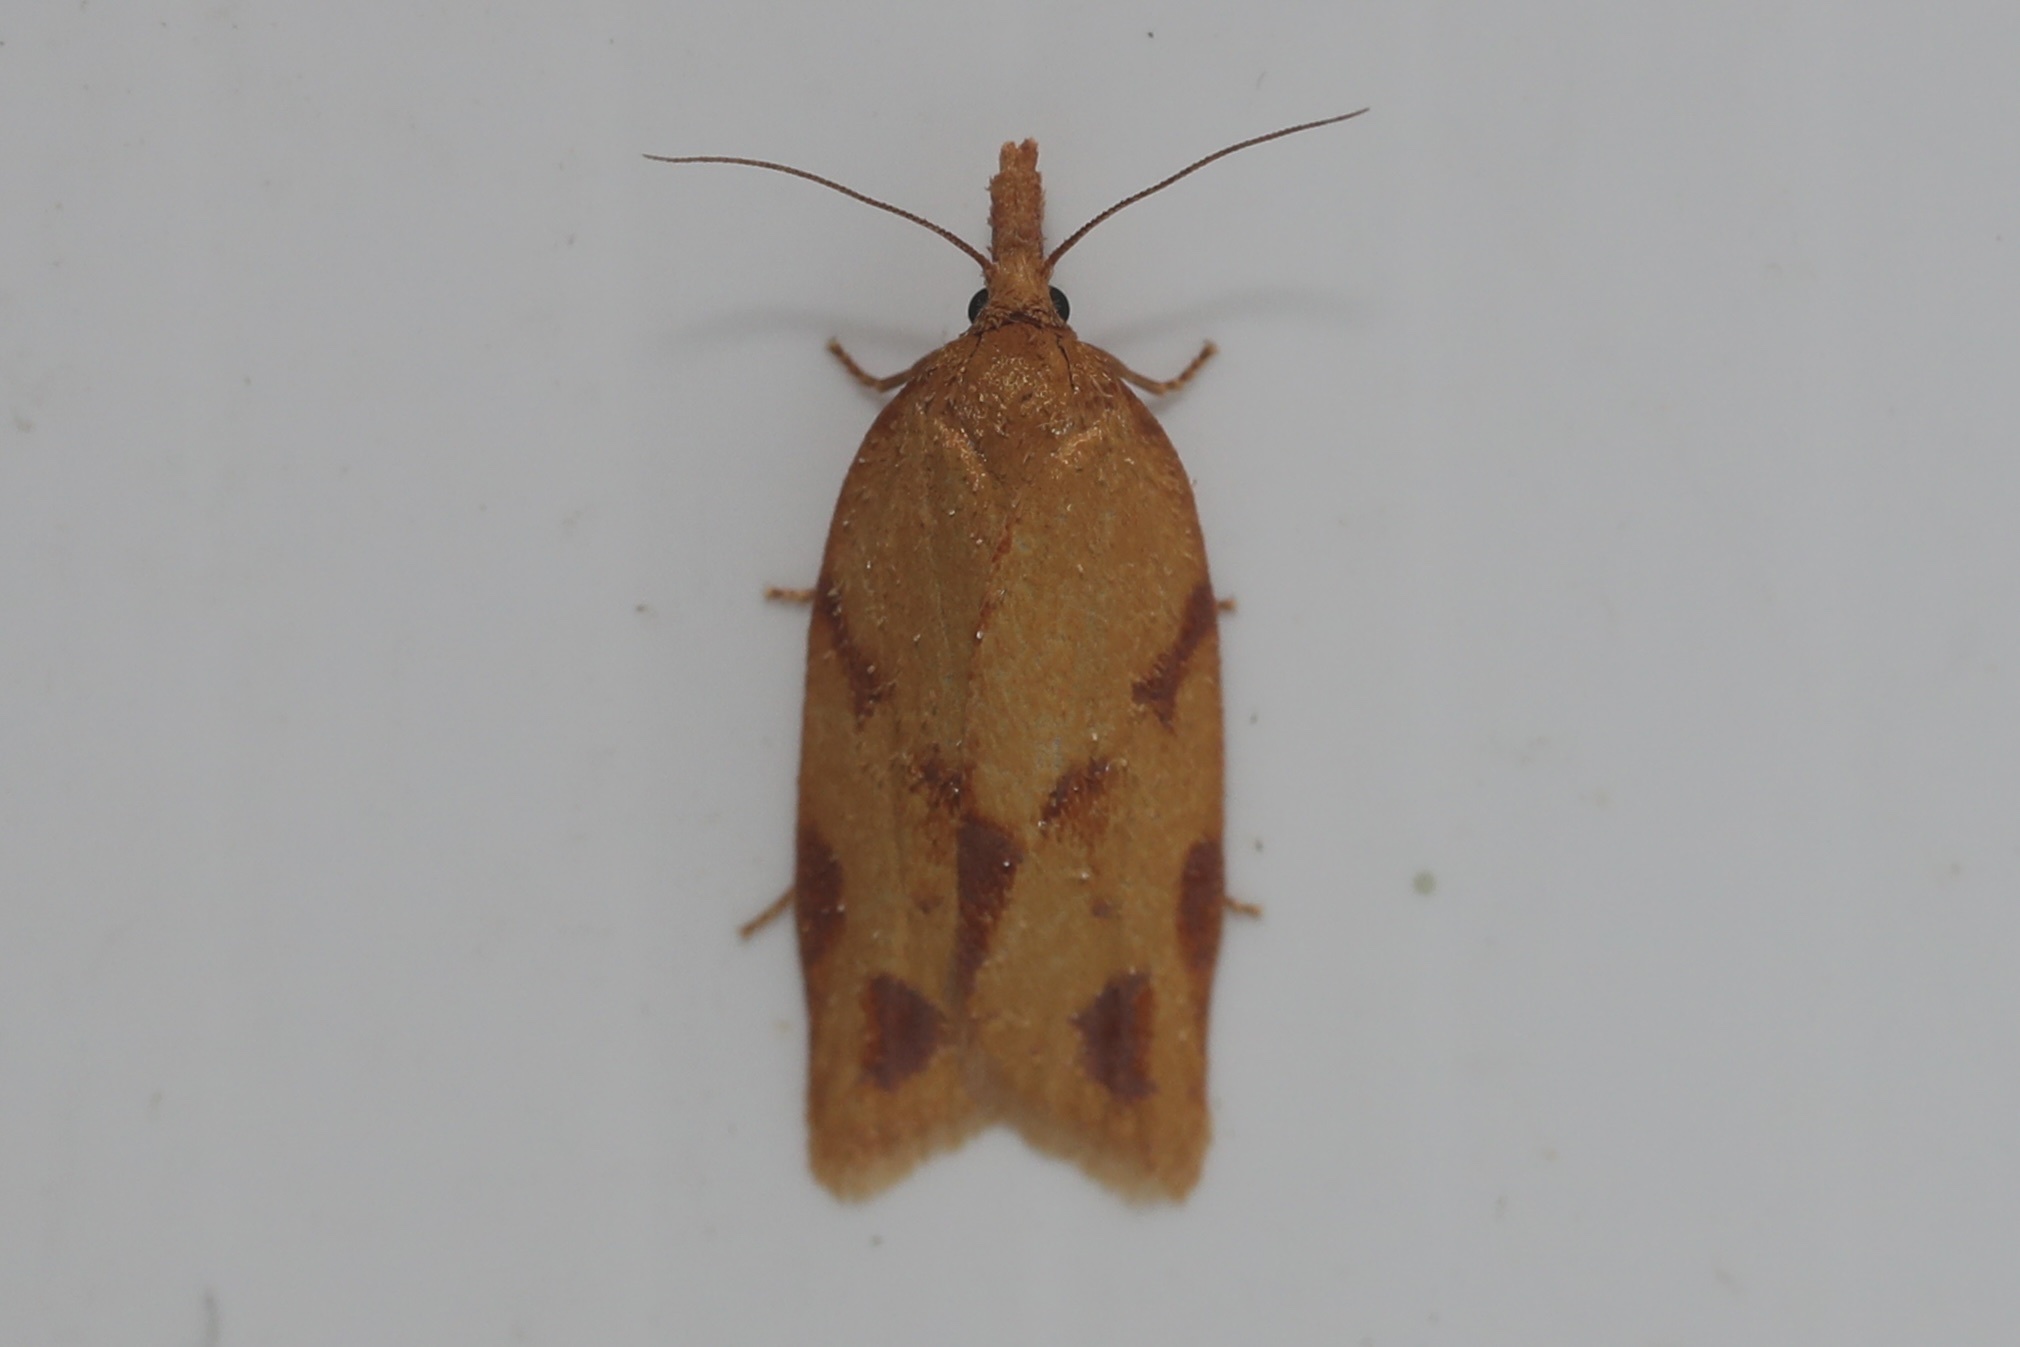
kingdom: Animalia
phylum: Arthropoda
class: Insecta
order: Lepidoptera
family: Tortricidae
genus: Sparganothis
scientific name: Sparganothis unifasciana
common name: One-lined sparganothis moth
